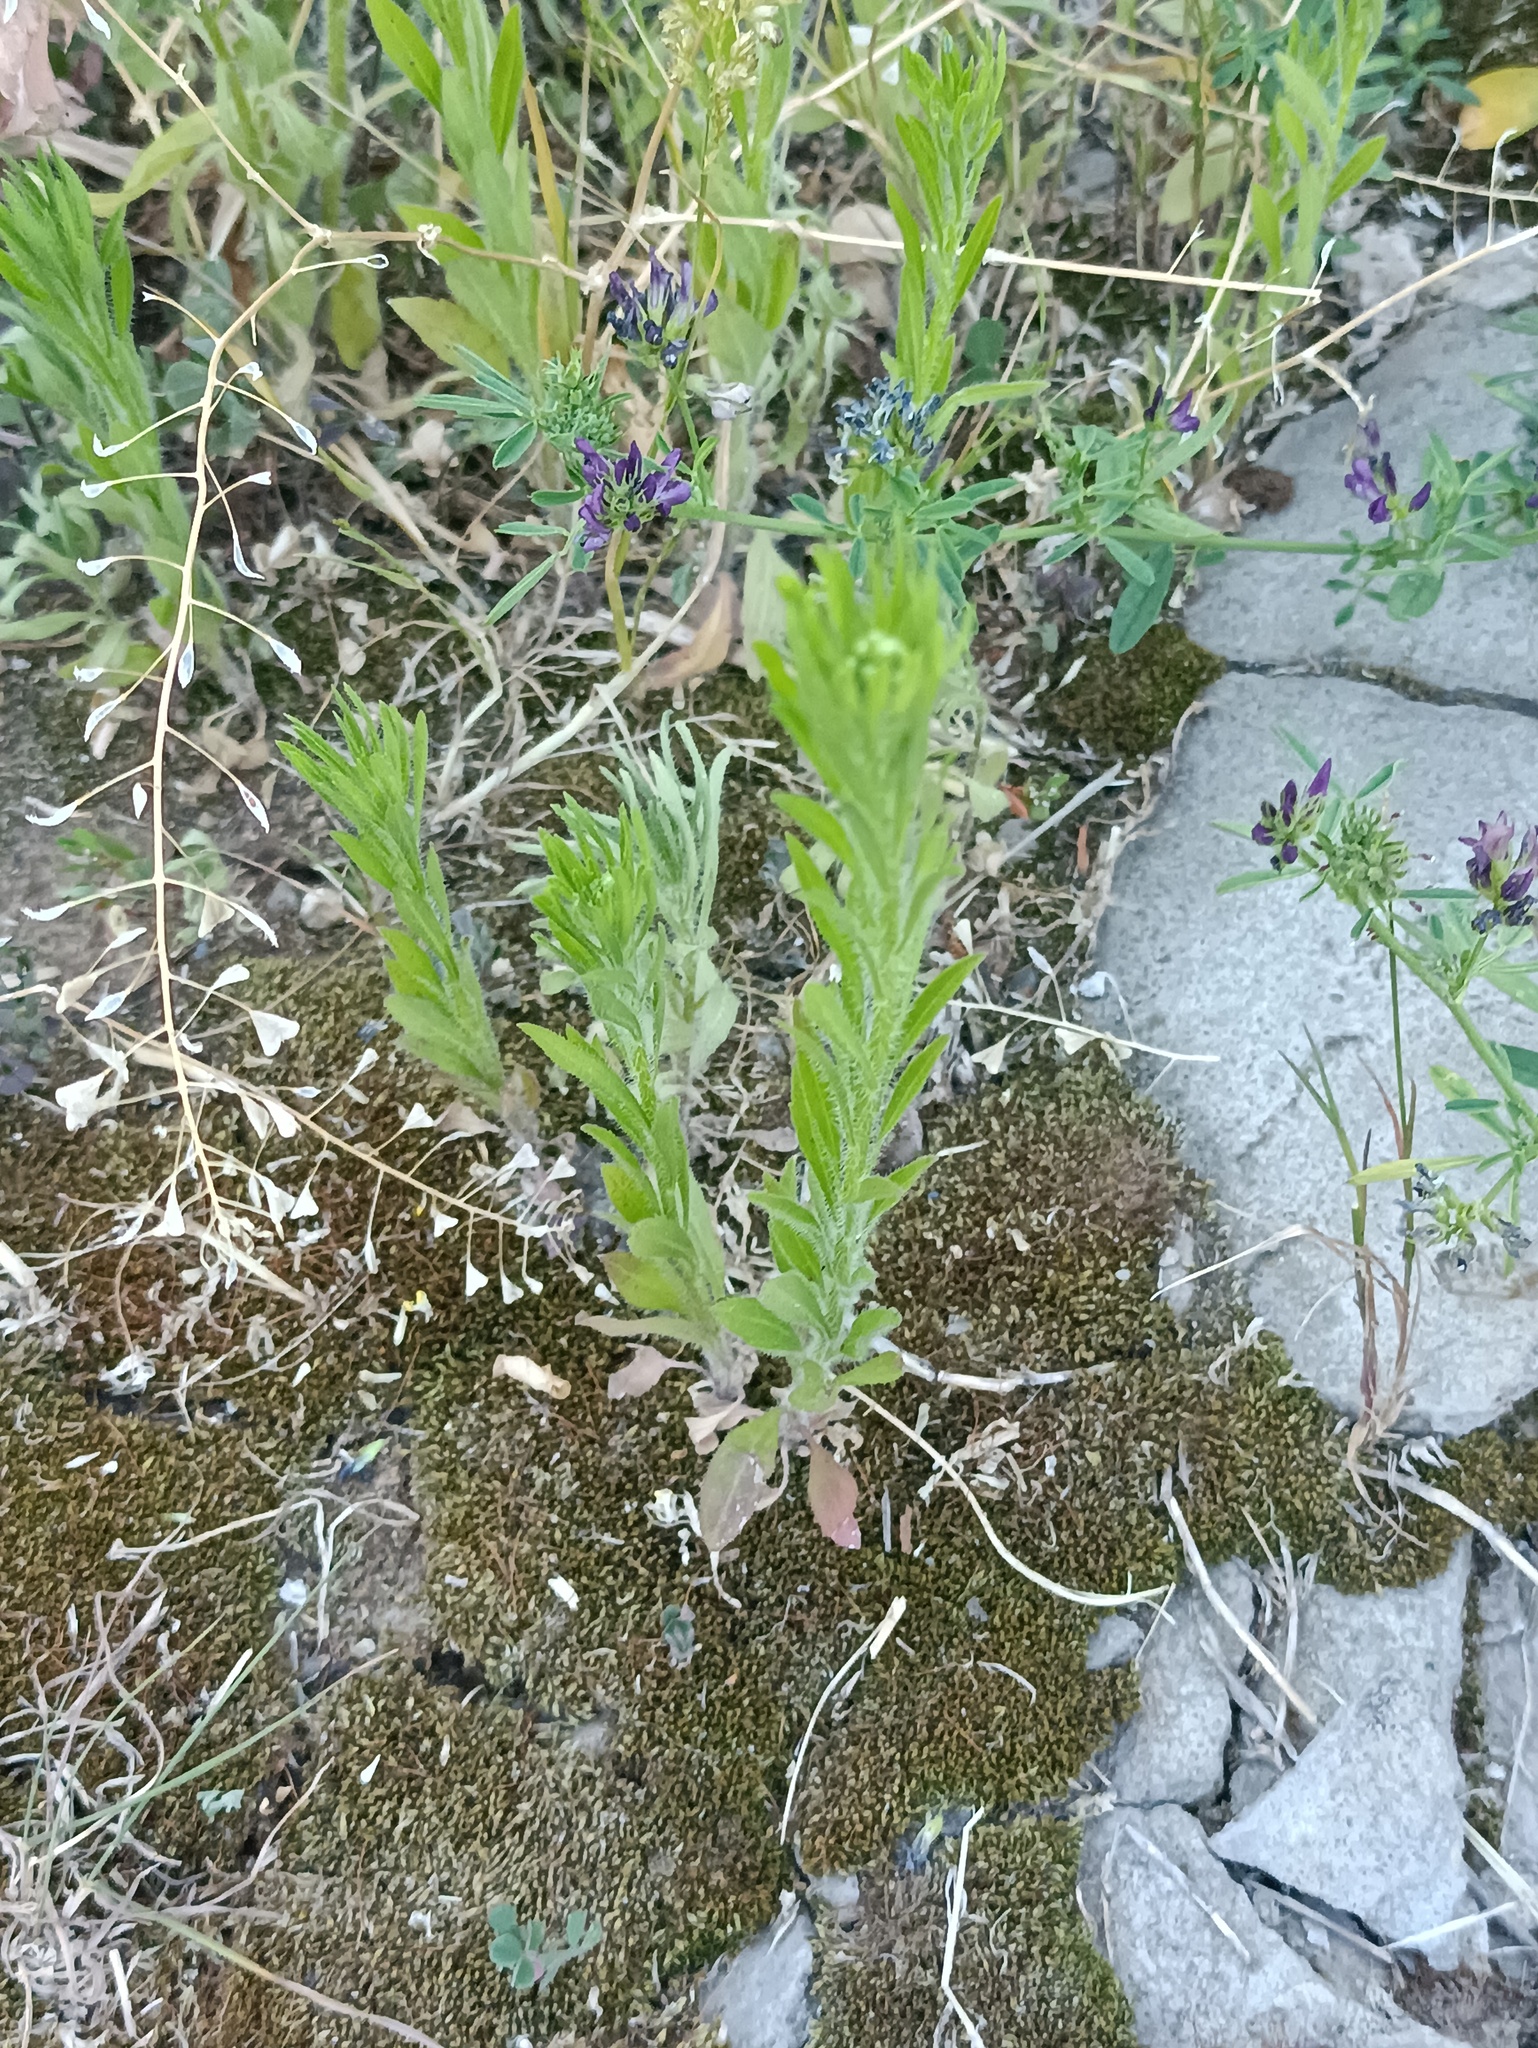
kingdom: Plantae
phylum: Tracheophyta
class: Magnoliopsida
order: Asterales
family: Asteraceae
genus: Erigeron
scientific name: Erigeron canadensis
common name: Canadian fleabane
